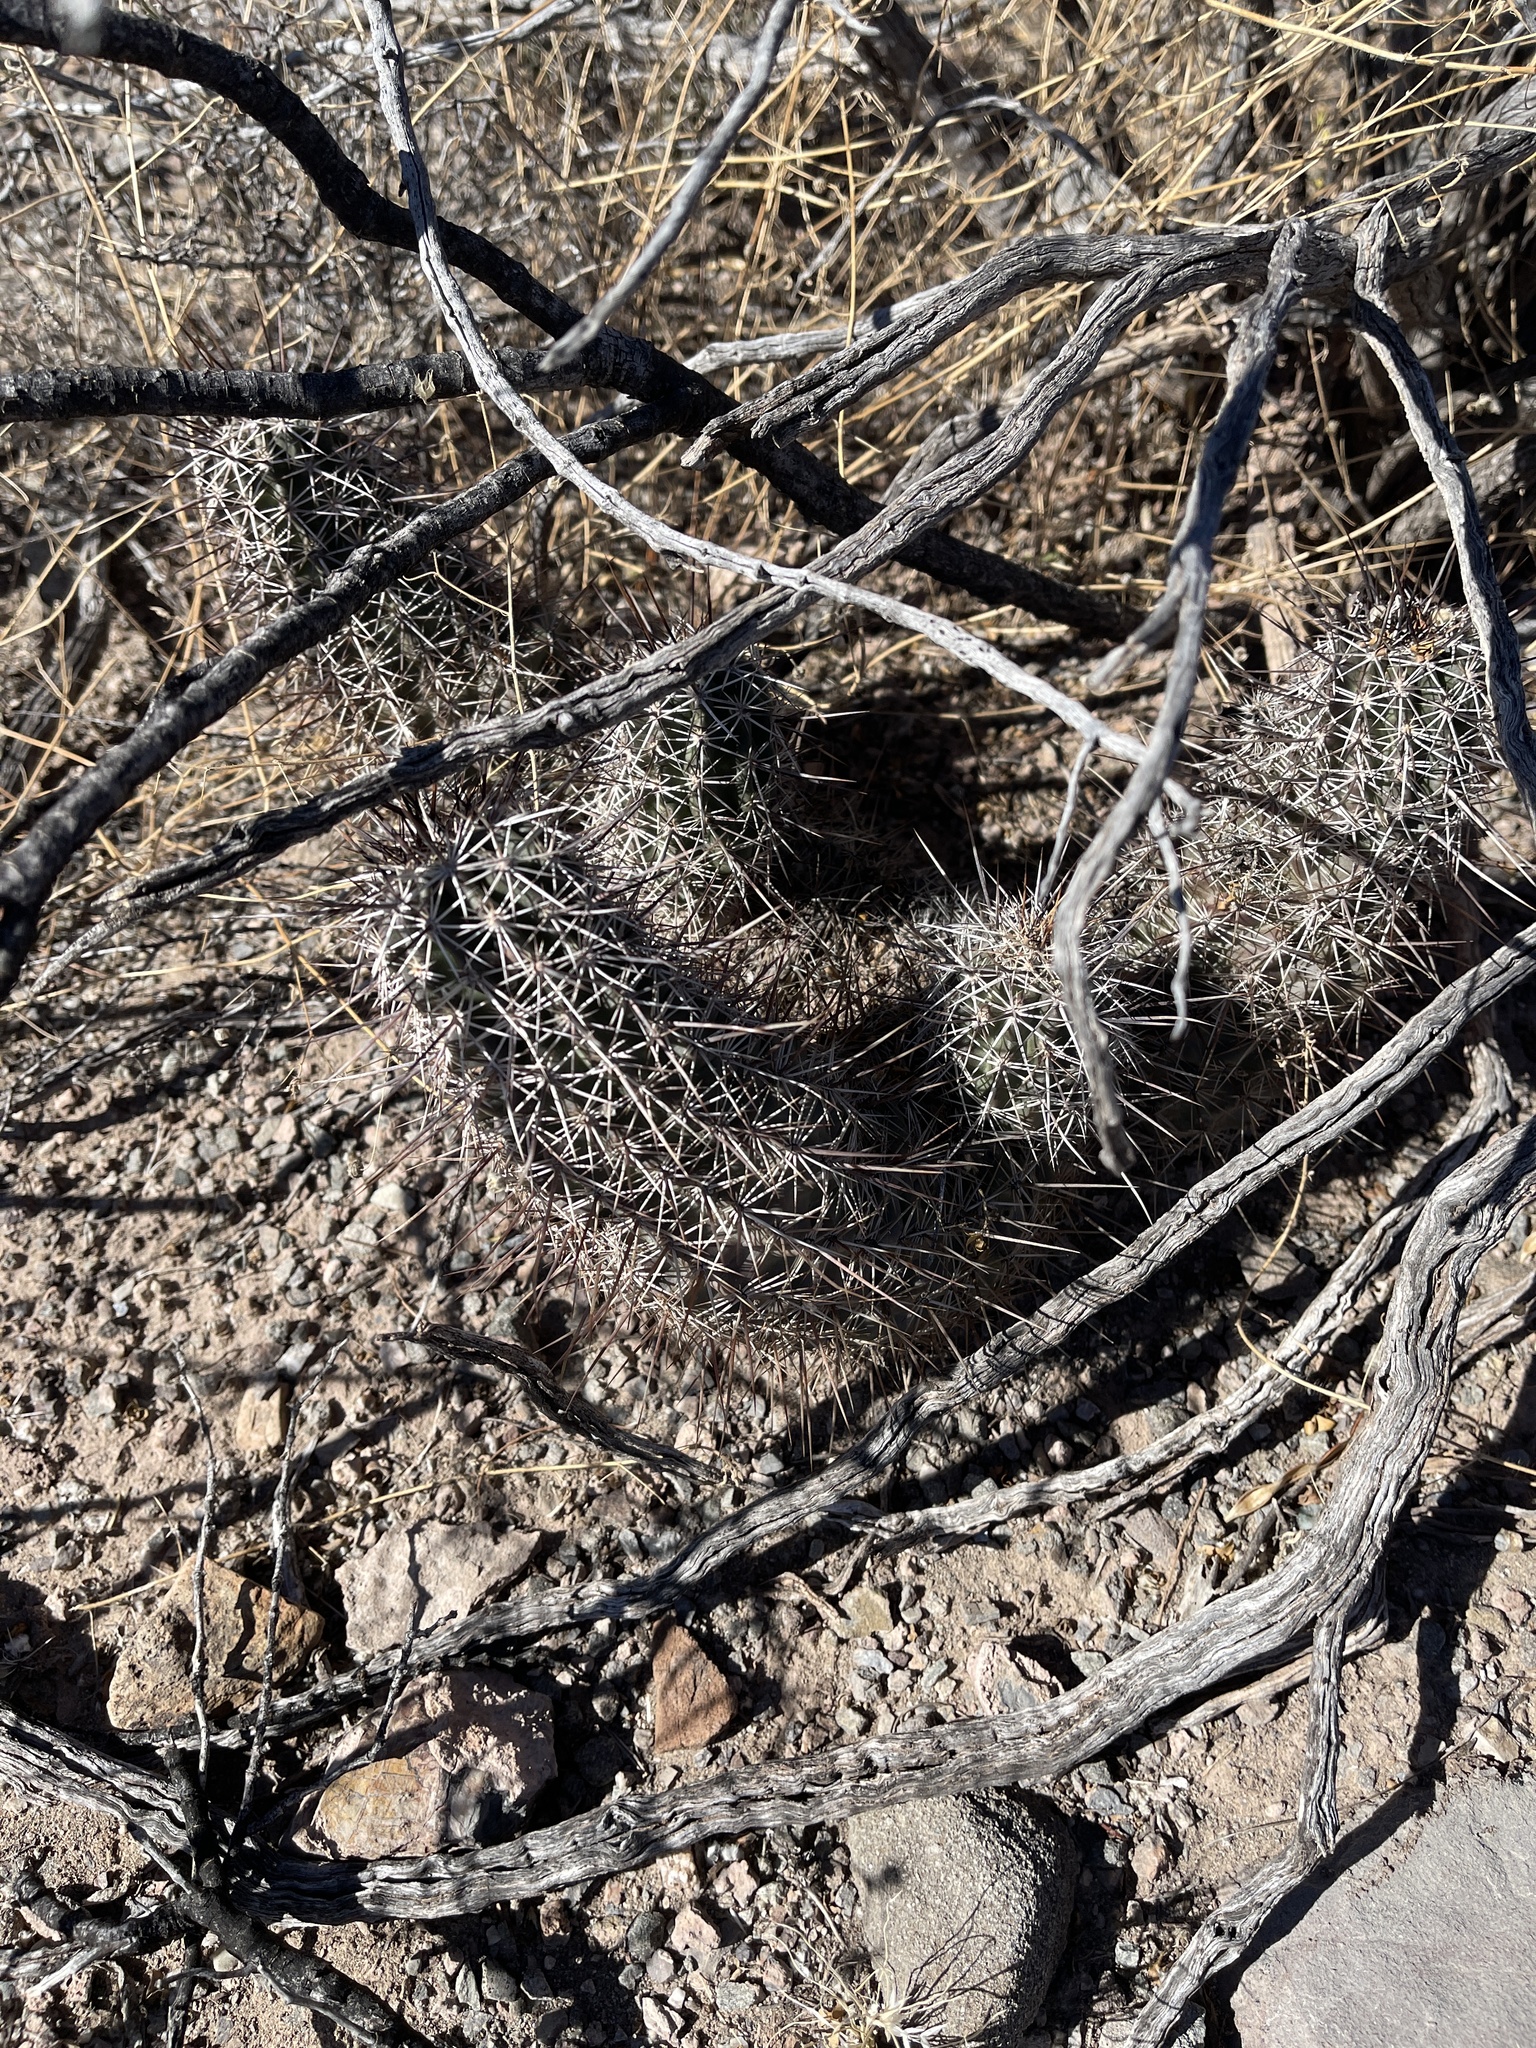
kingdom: Plantae
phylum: Tracheophyta
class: Magnoliopsida
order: Caryophyllales
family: Cactaceae
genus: Echinocereus
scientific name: Echinocereus fasciculatus
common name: Bundle hedgehog
